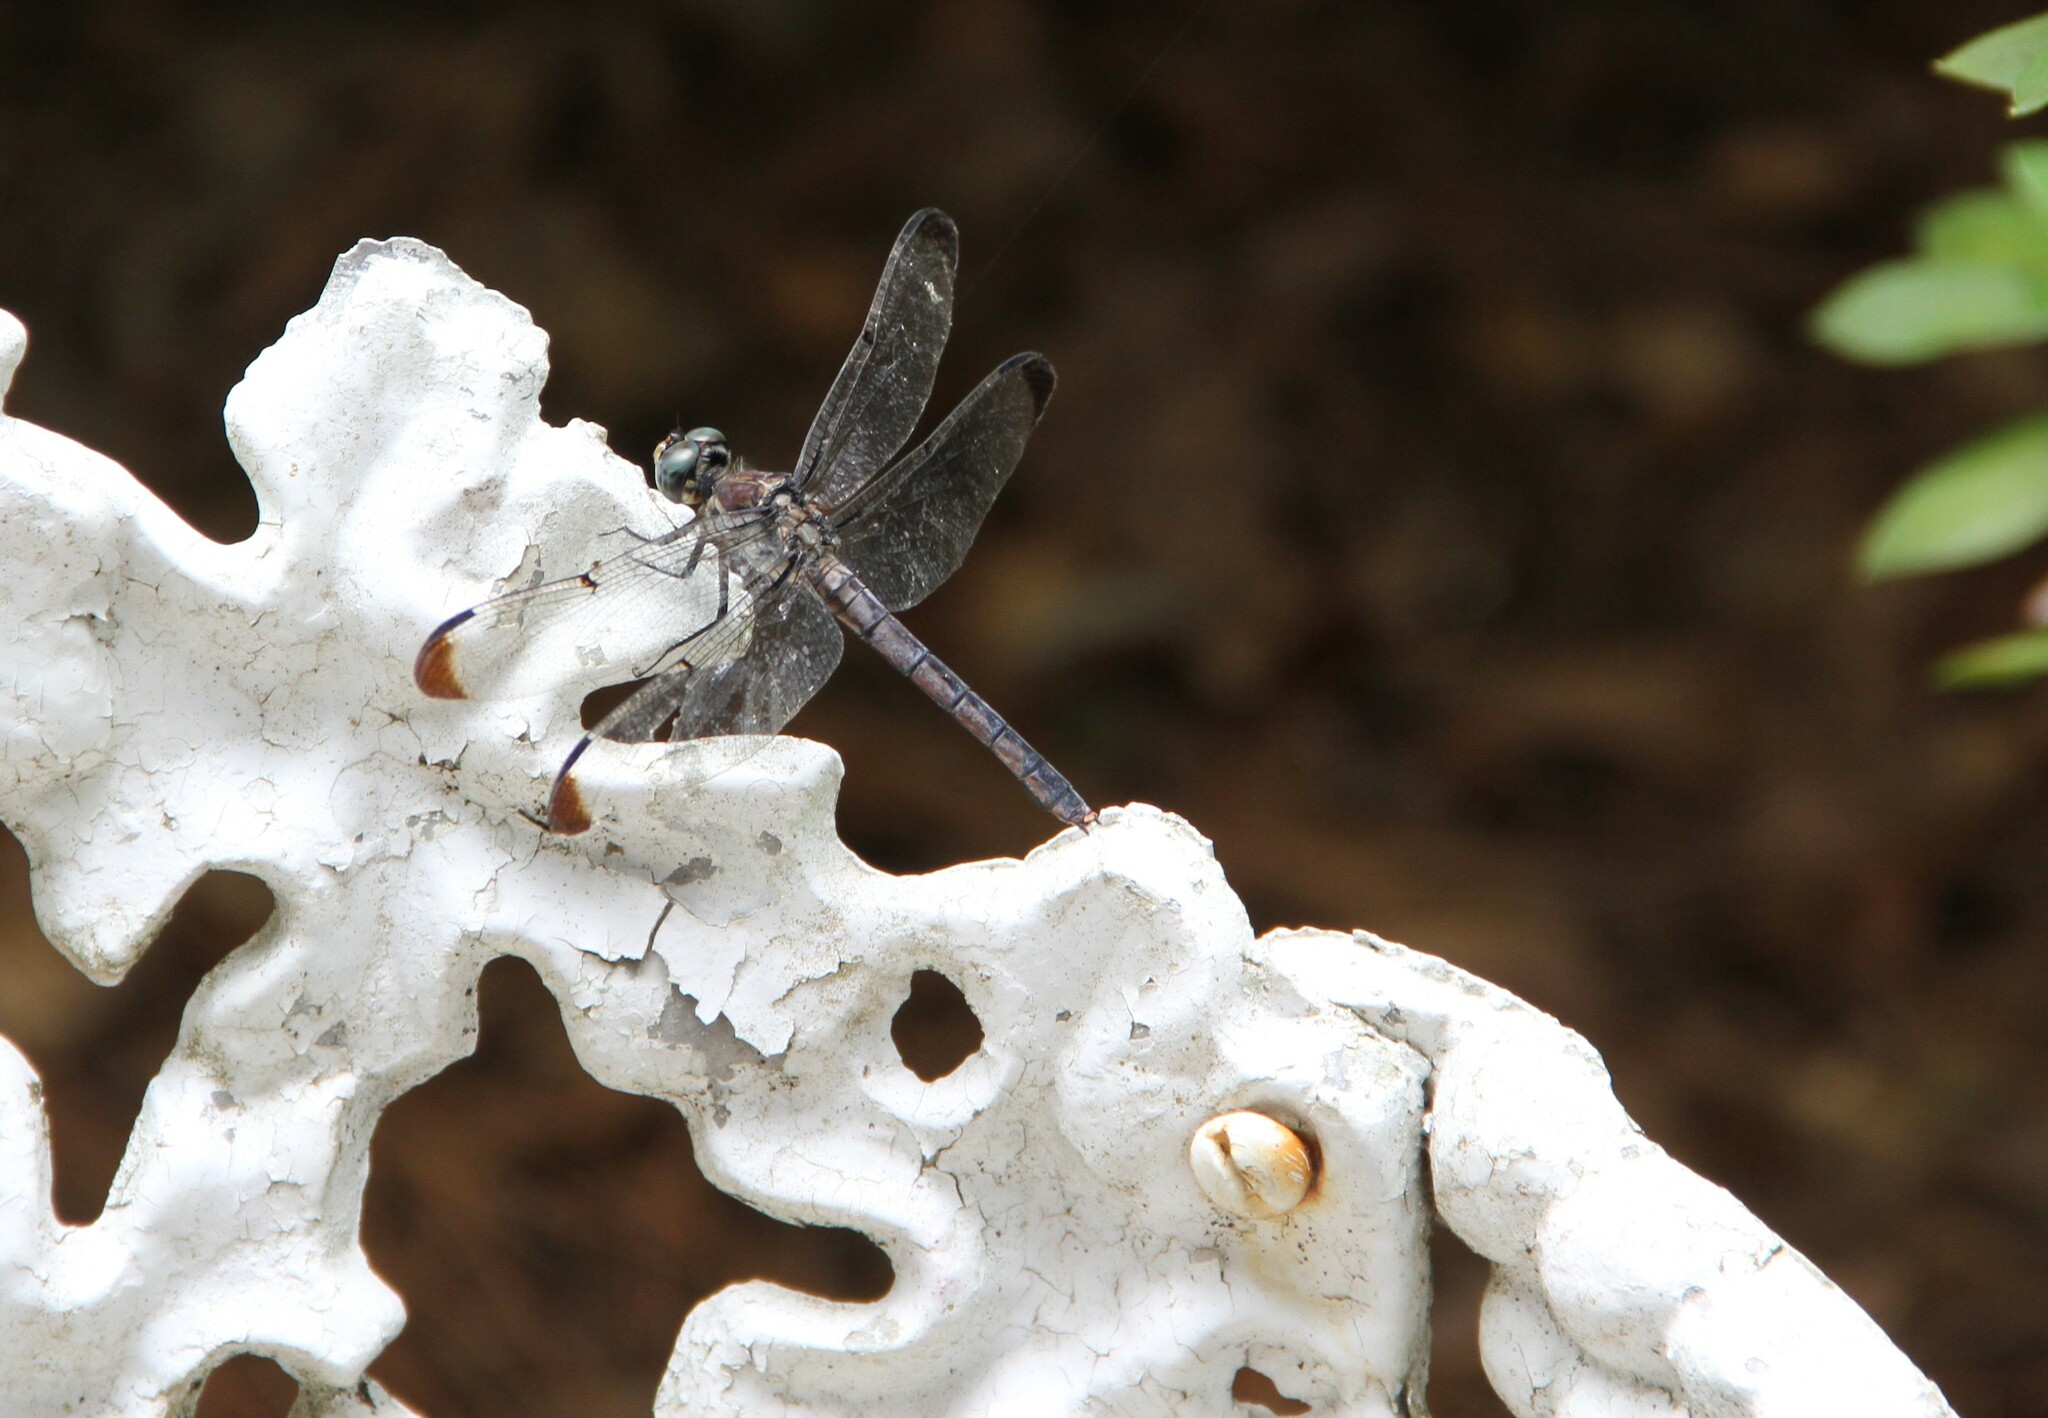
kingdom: Animalia
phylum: Arthropoda
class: Insecta
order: Odonata
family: Libellulidae
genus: Libellula
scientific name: Libellula vibrans
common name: Great blue skimmer
